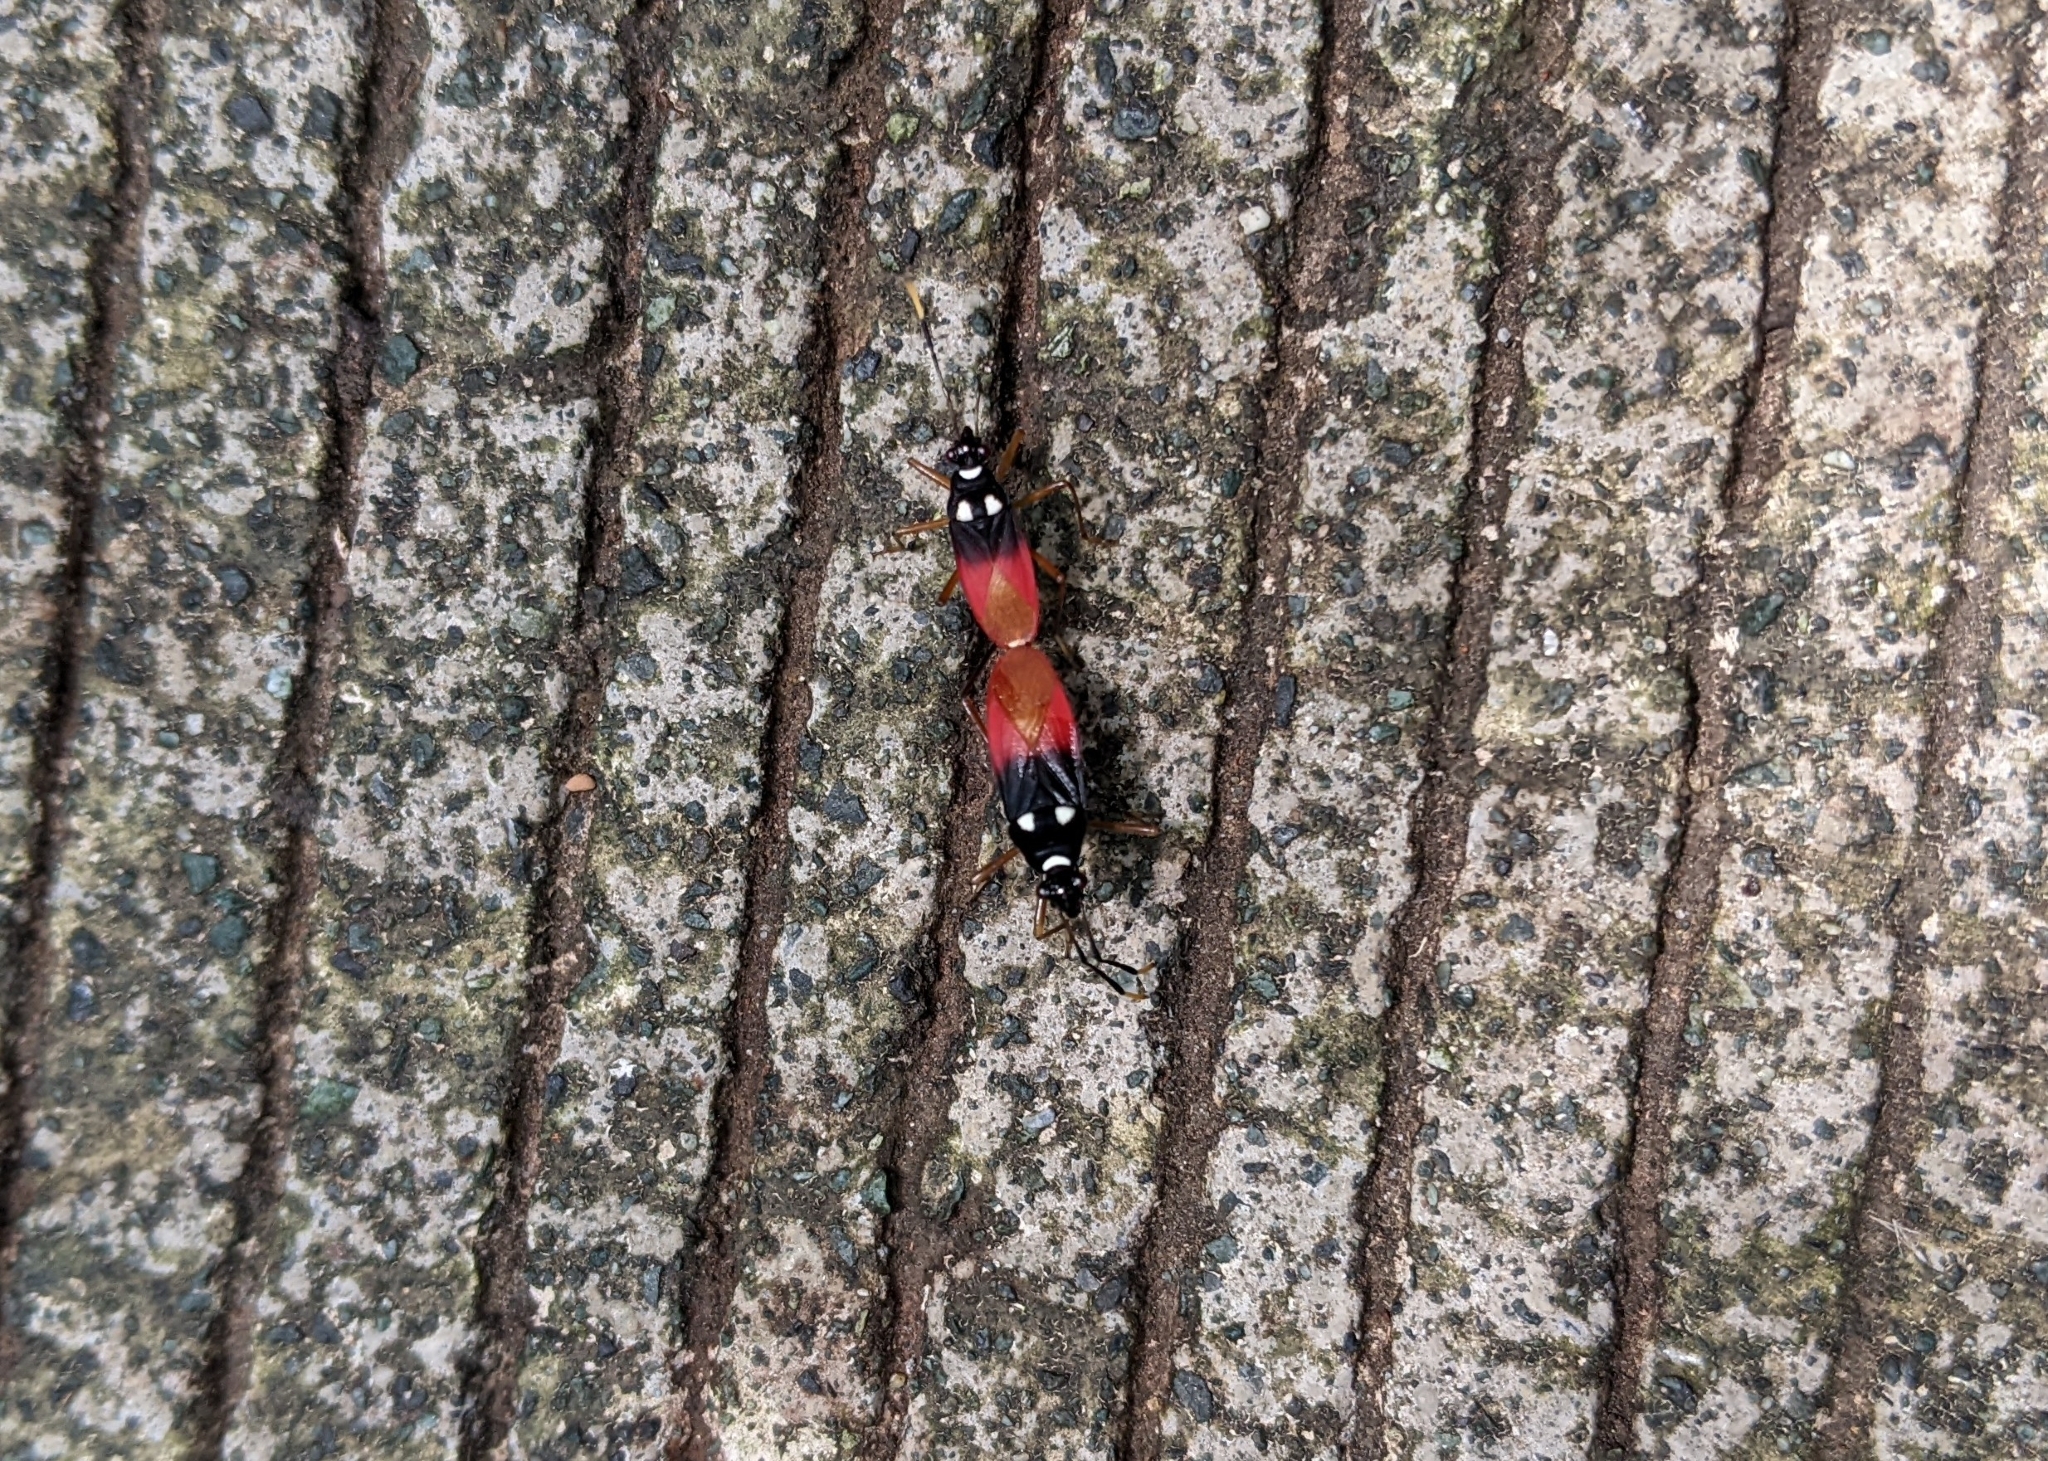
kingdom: Animalia
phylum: Arthropoda
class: Insecta
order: Hemiptera
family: Pyrrhocoridae
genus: Dindymus
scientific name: Dindymus
